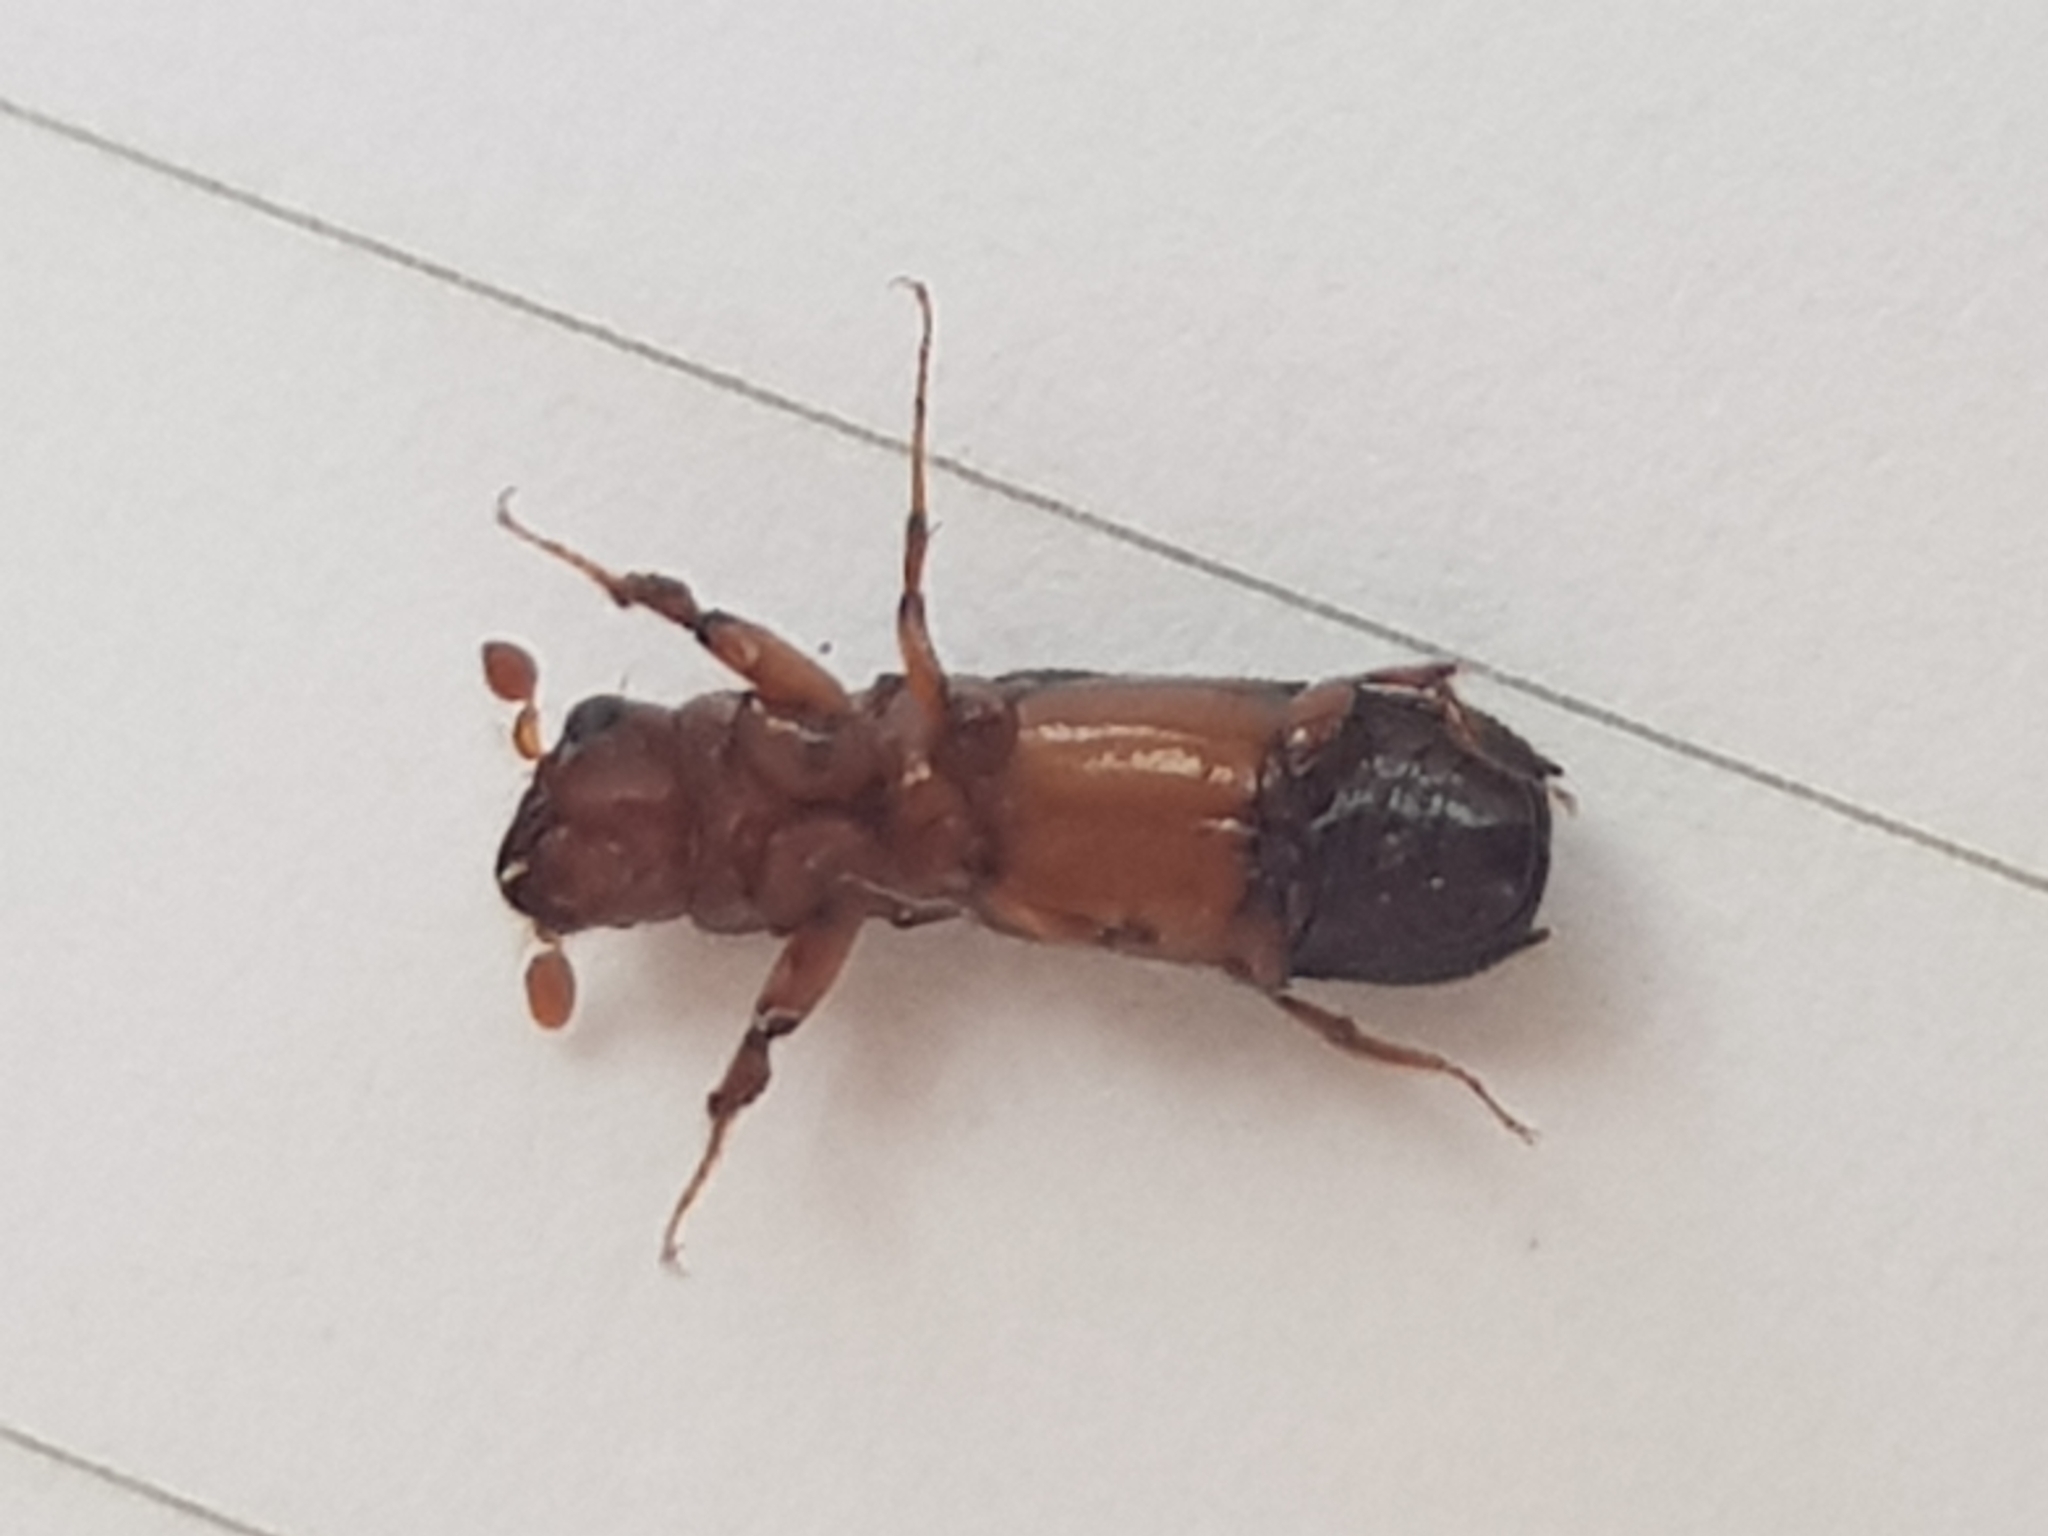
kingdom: Animalia
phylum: Arthropoda
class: Insecta
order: Coleoptera
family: Curculionidae
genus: Platypus
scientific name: Platypus apicalis
